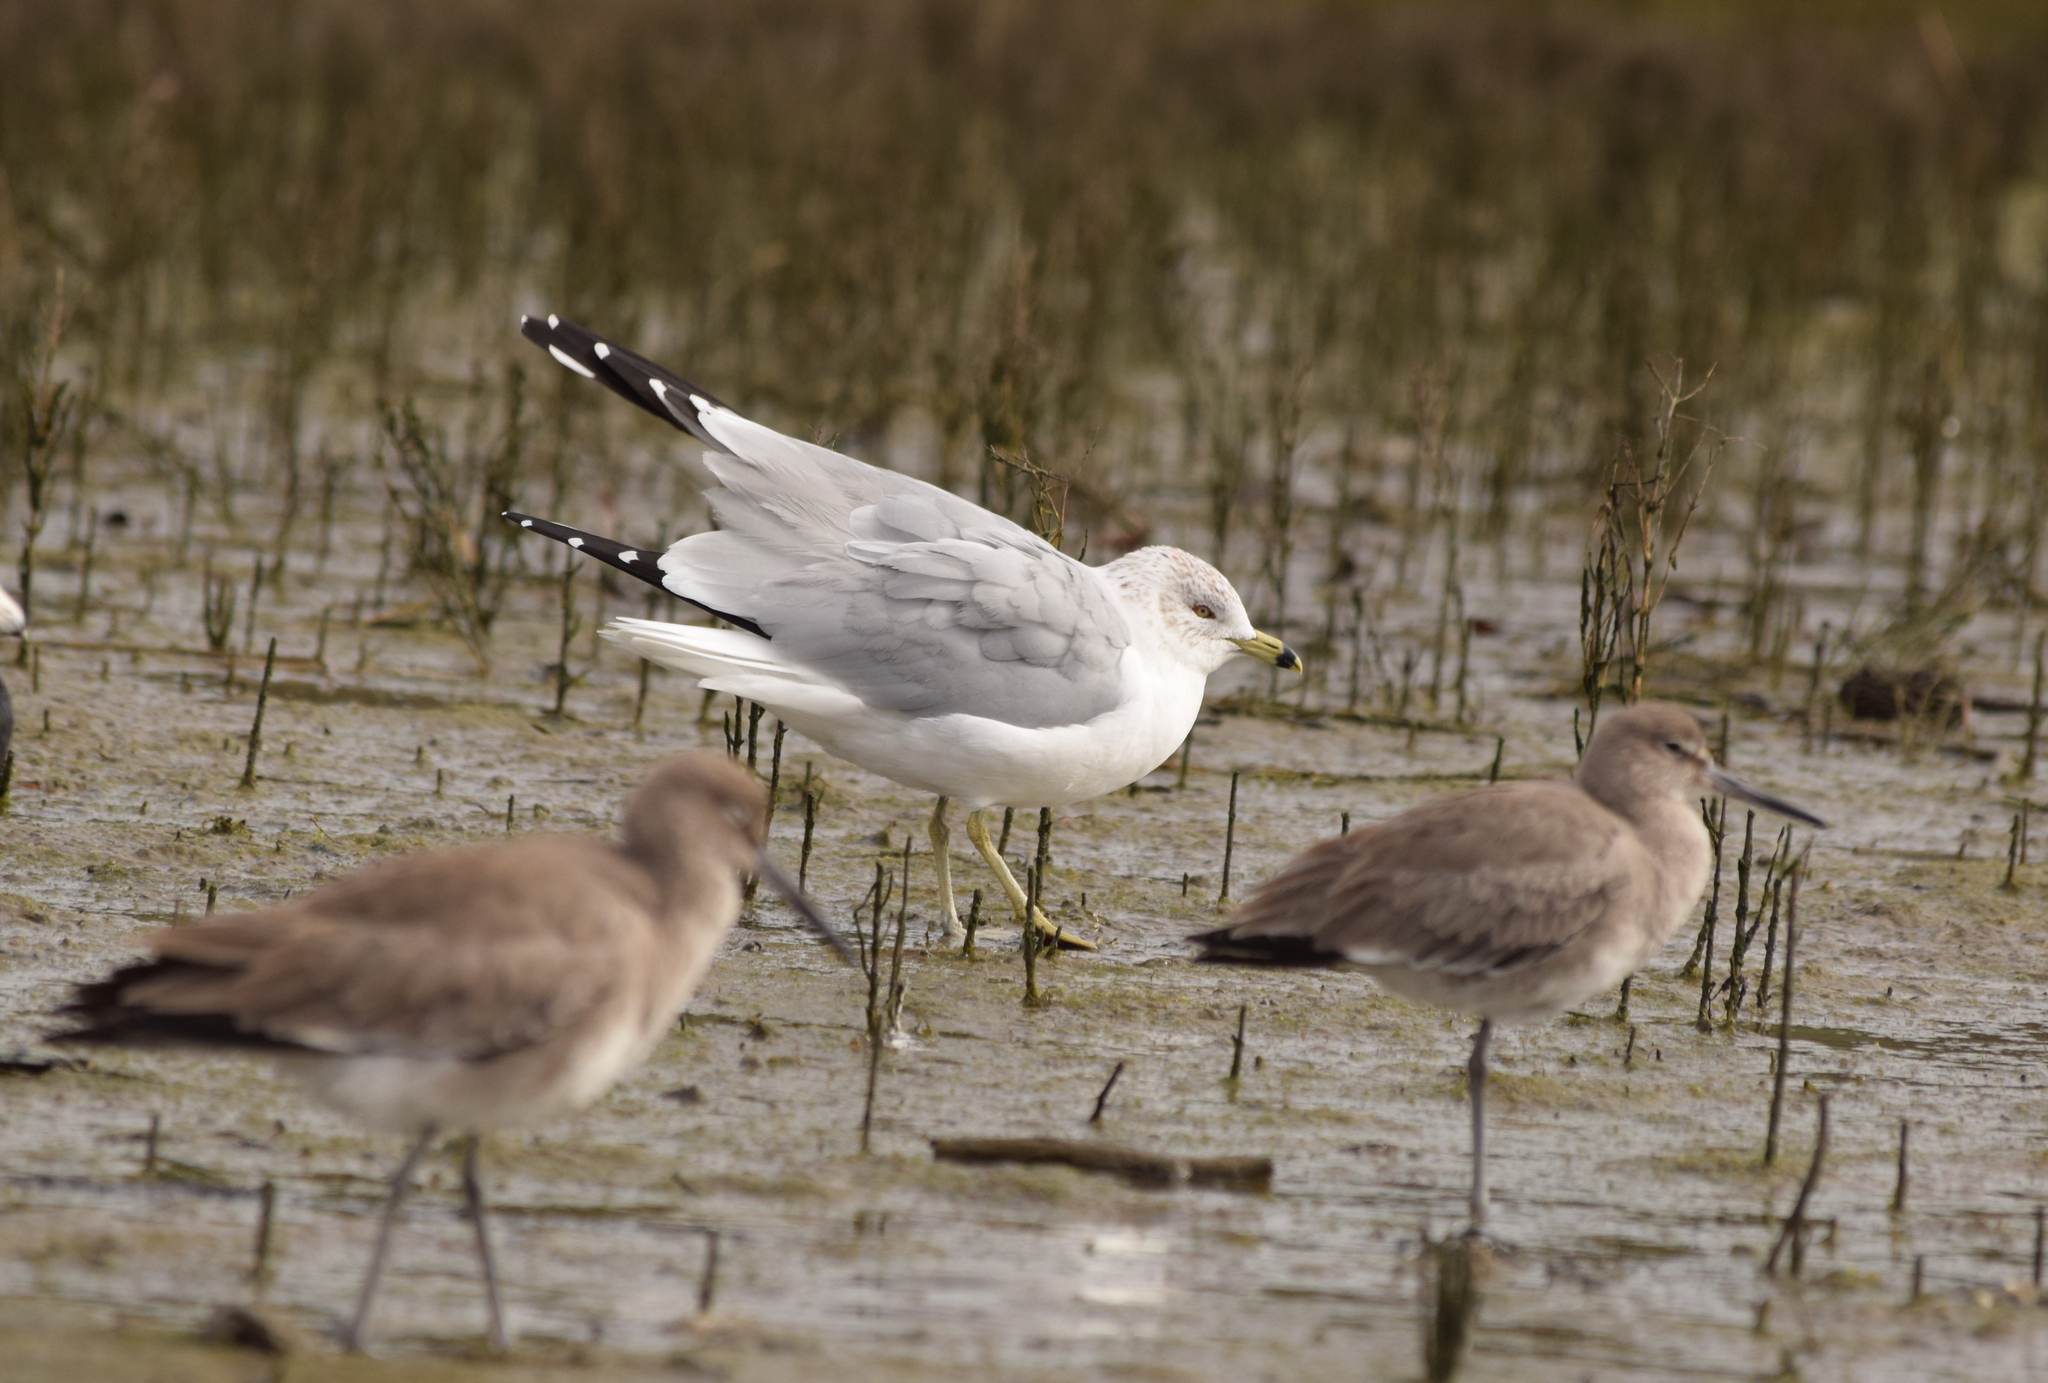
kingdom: Animalia
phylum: Chordata
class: Aves
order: Charadriiformes
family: Laridae
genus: Larus
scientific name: Larus delawarensis
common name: Ring-billed gull
